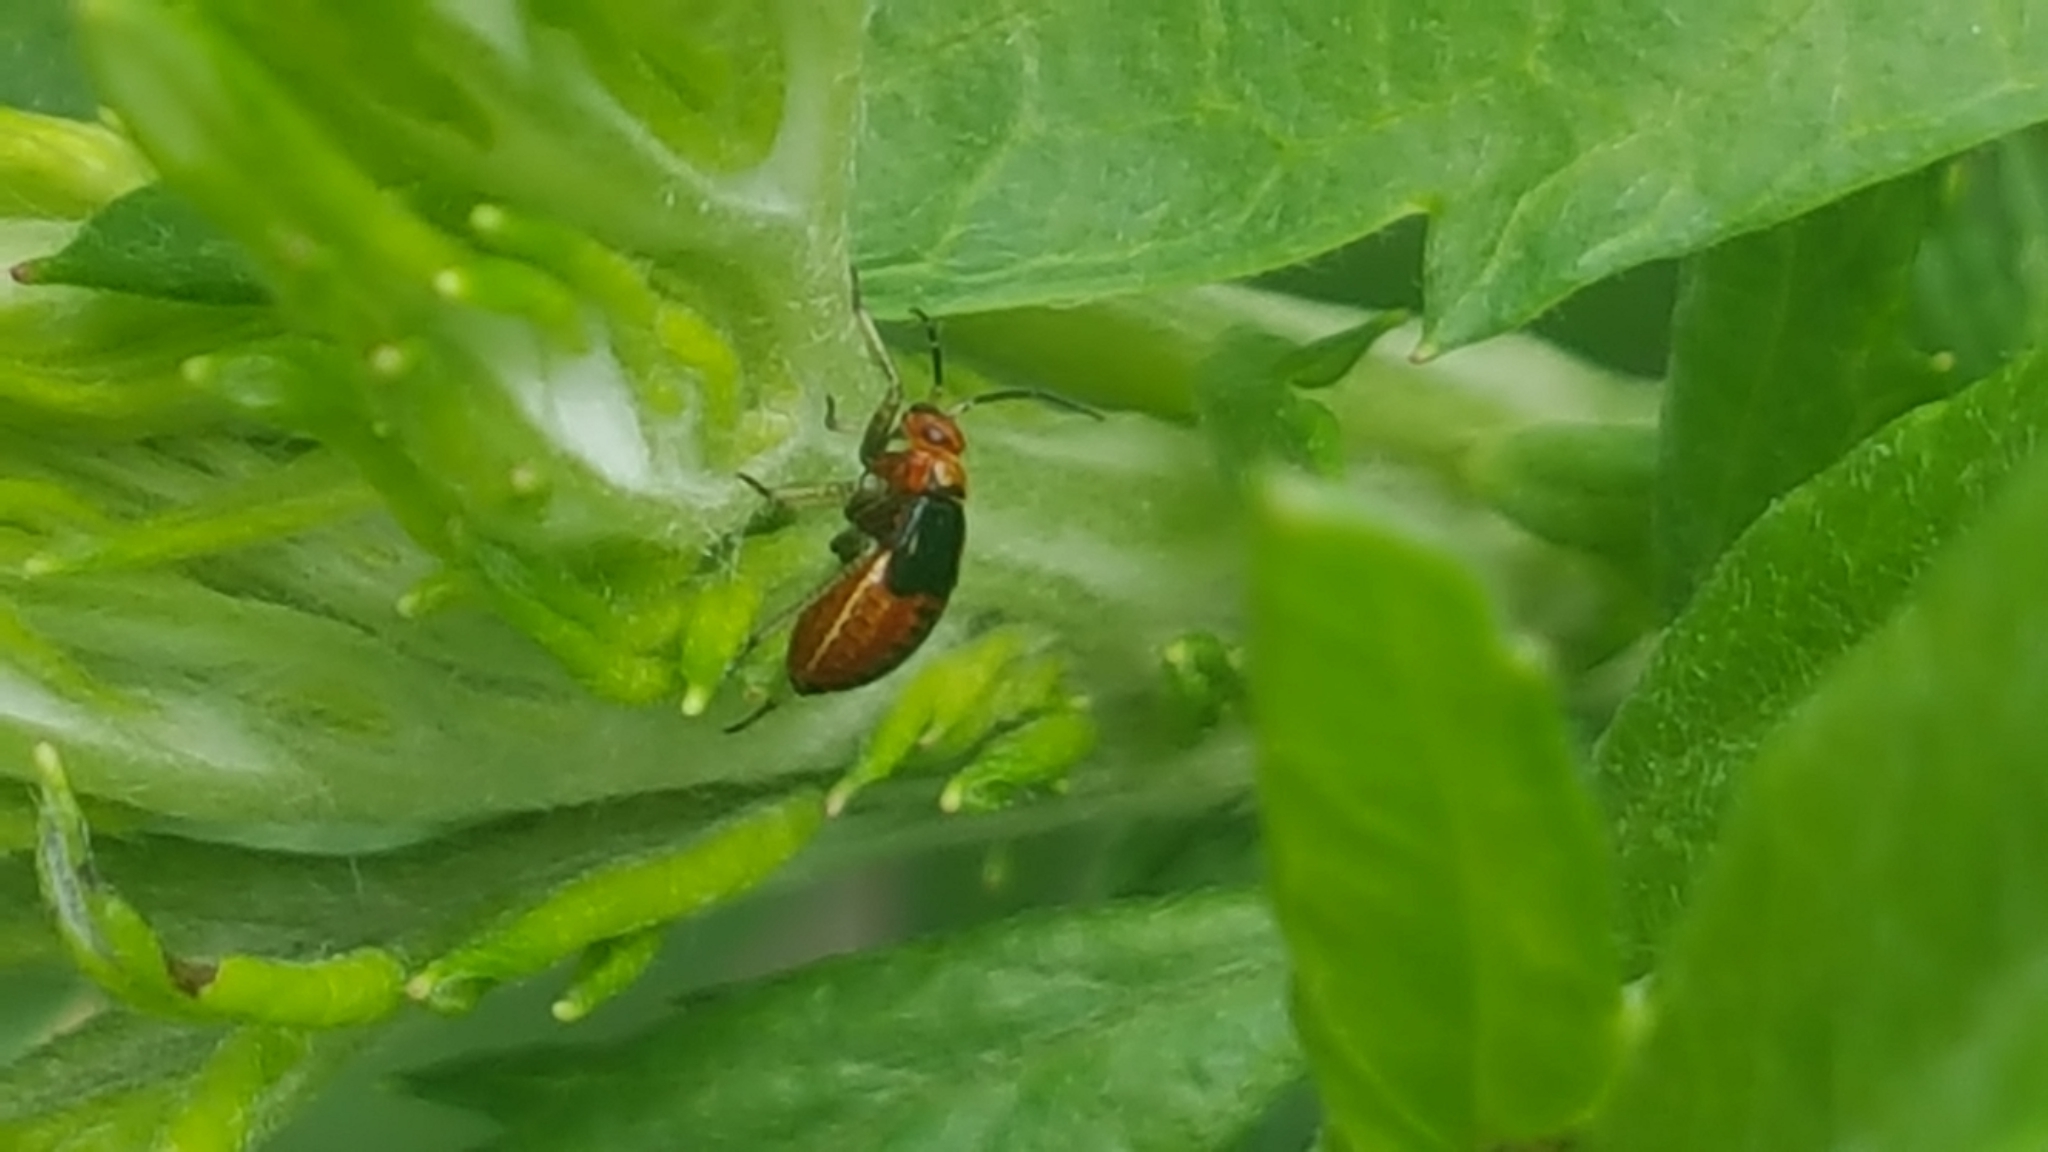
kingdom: Animalia
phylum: Arthropoda
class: Insecta
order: Hemiptera
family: Miridae
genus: Poecilocapsus
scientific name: Poecilocapsus lineatus
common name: Four-lined plant bug
